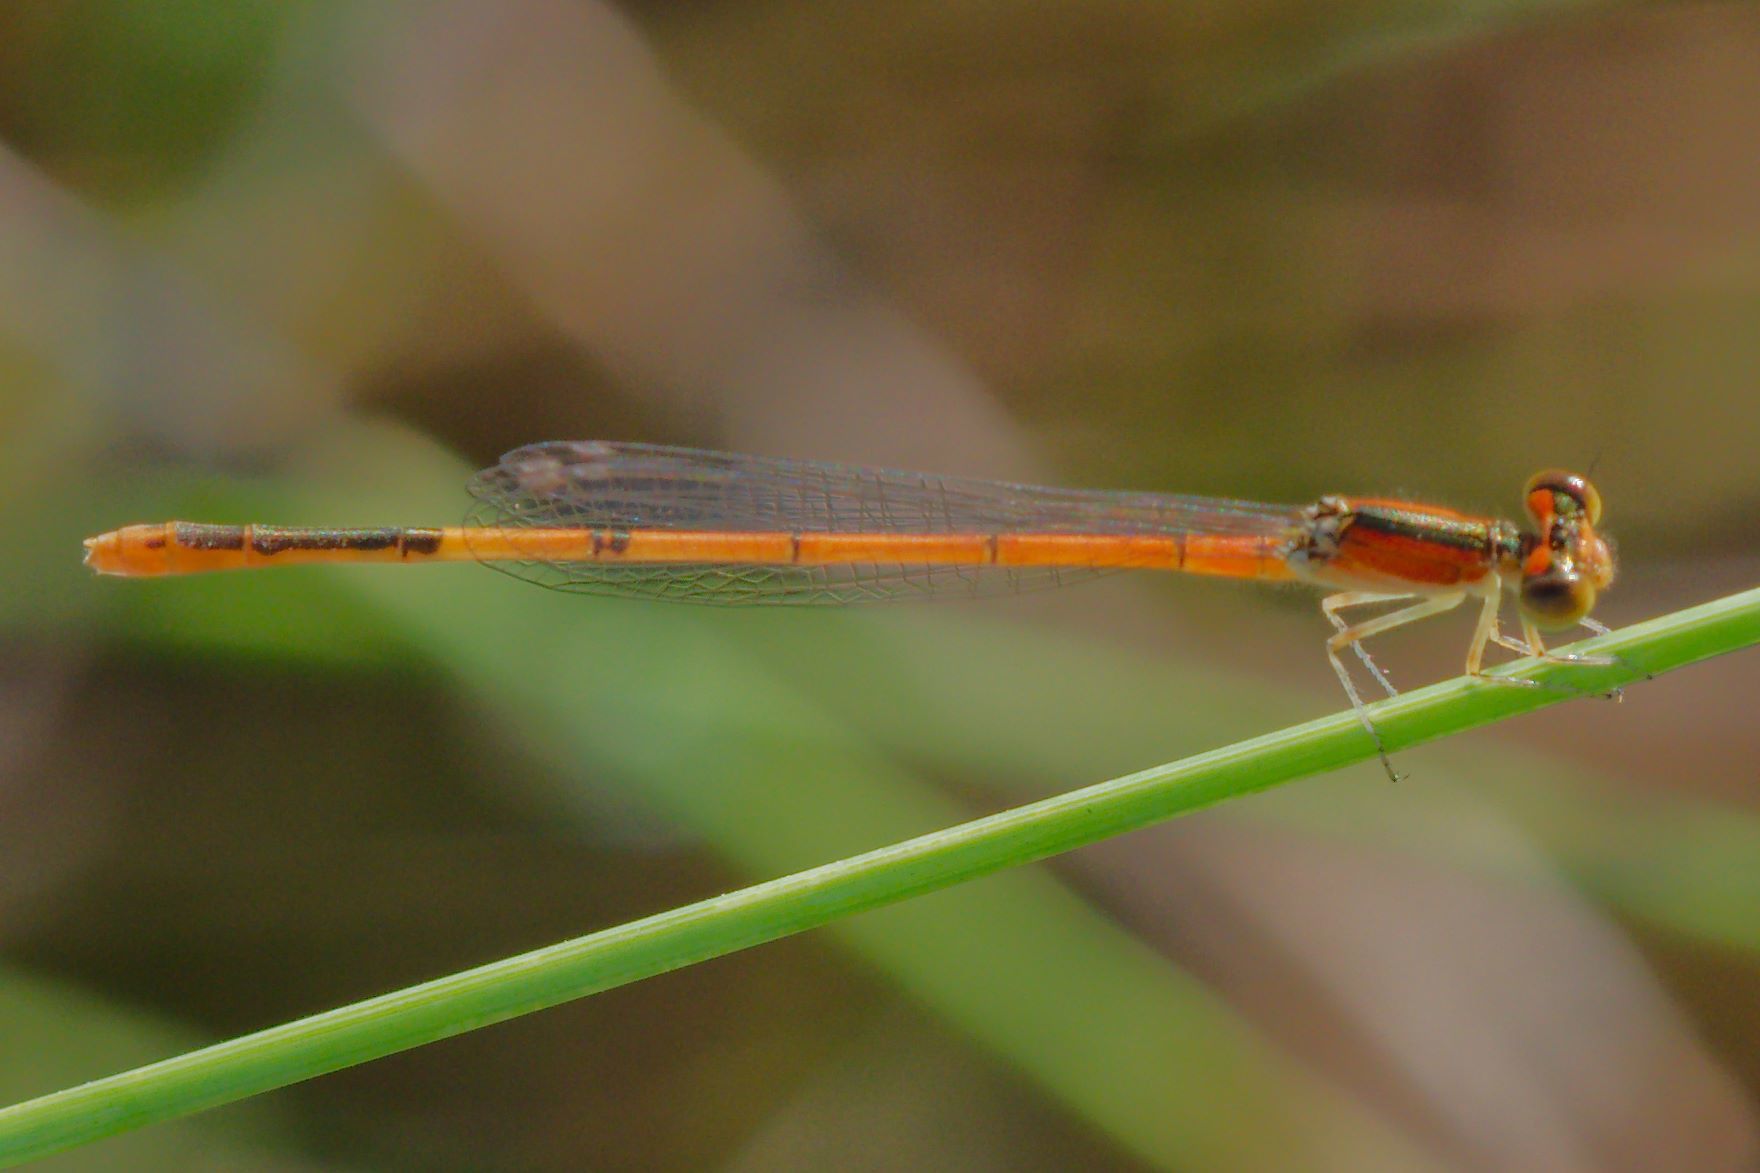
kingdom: Animalia
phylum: Arthropoda
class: Insecta
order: Odonata
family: Coenagrionidae
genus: Ischnura
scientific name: Ischnura hastata
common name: Citrine forktail
